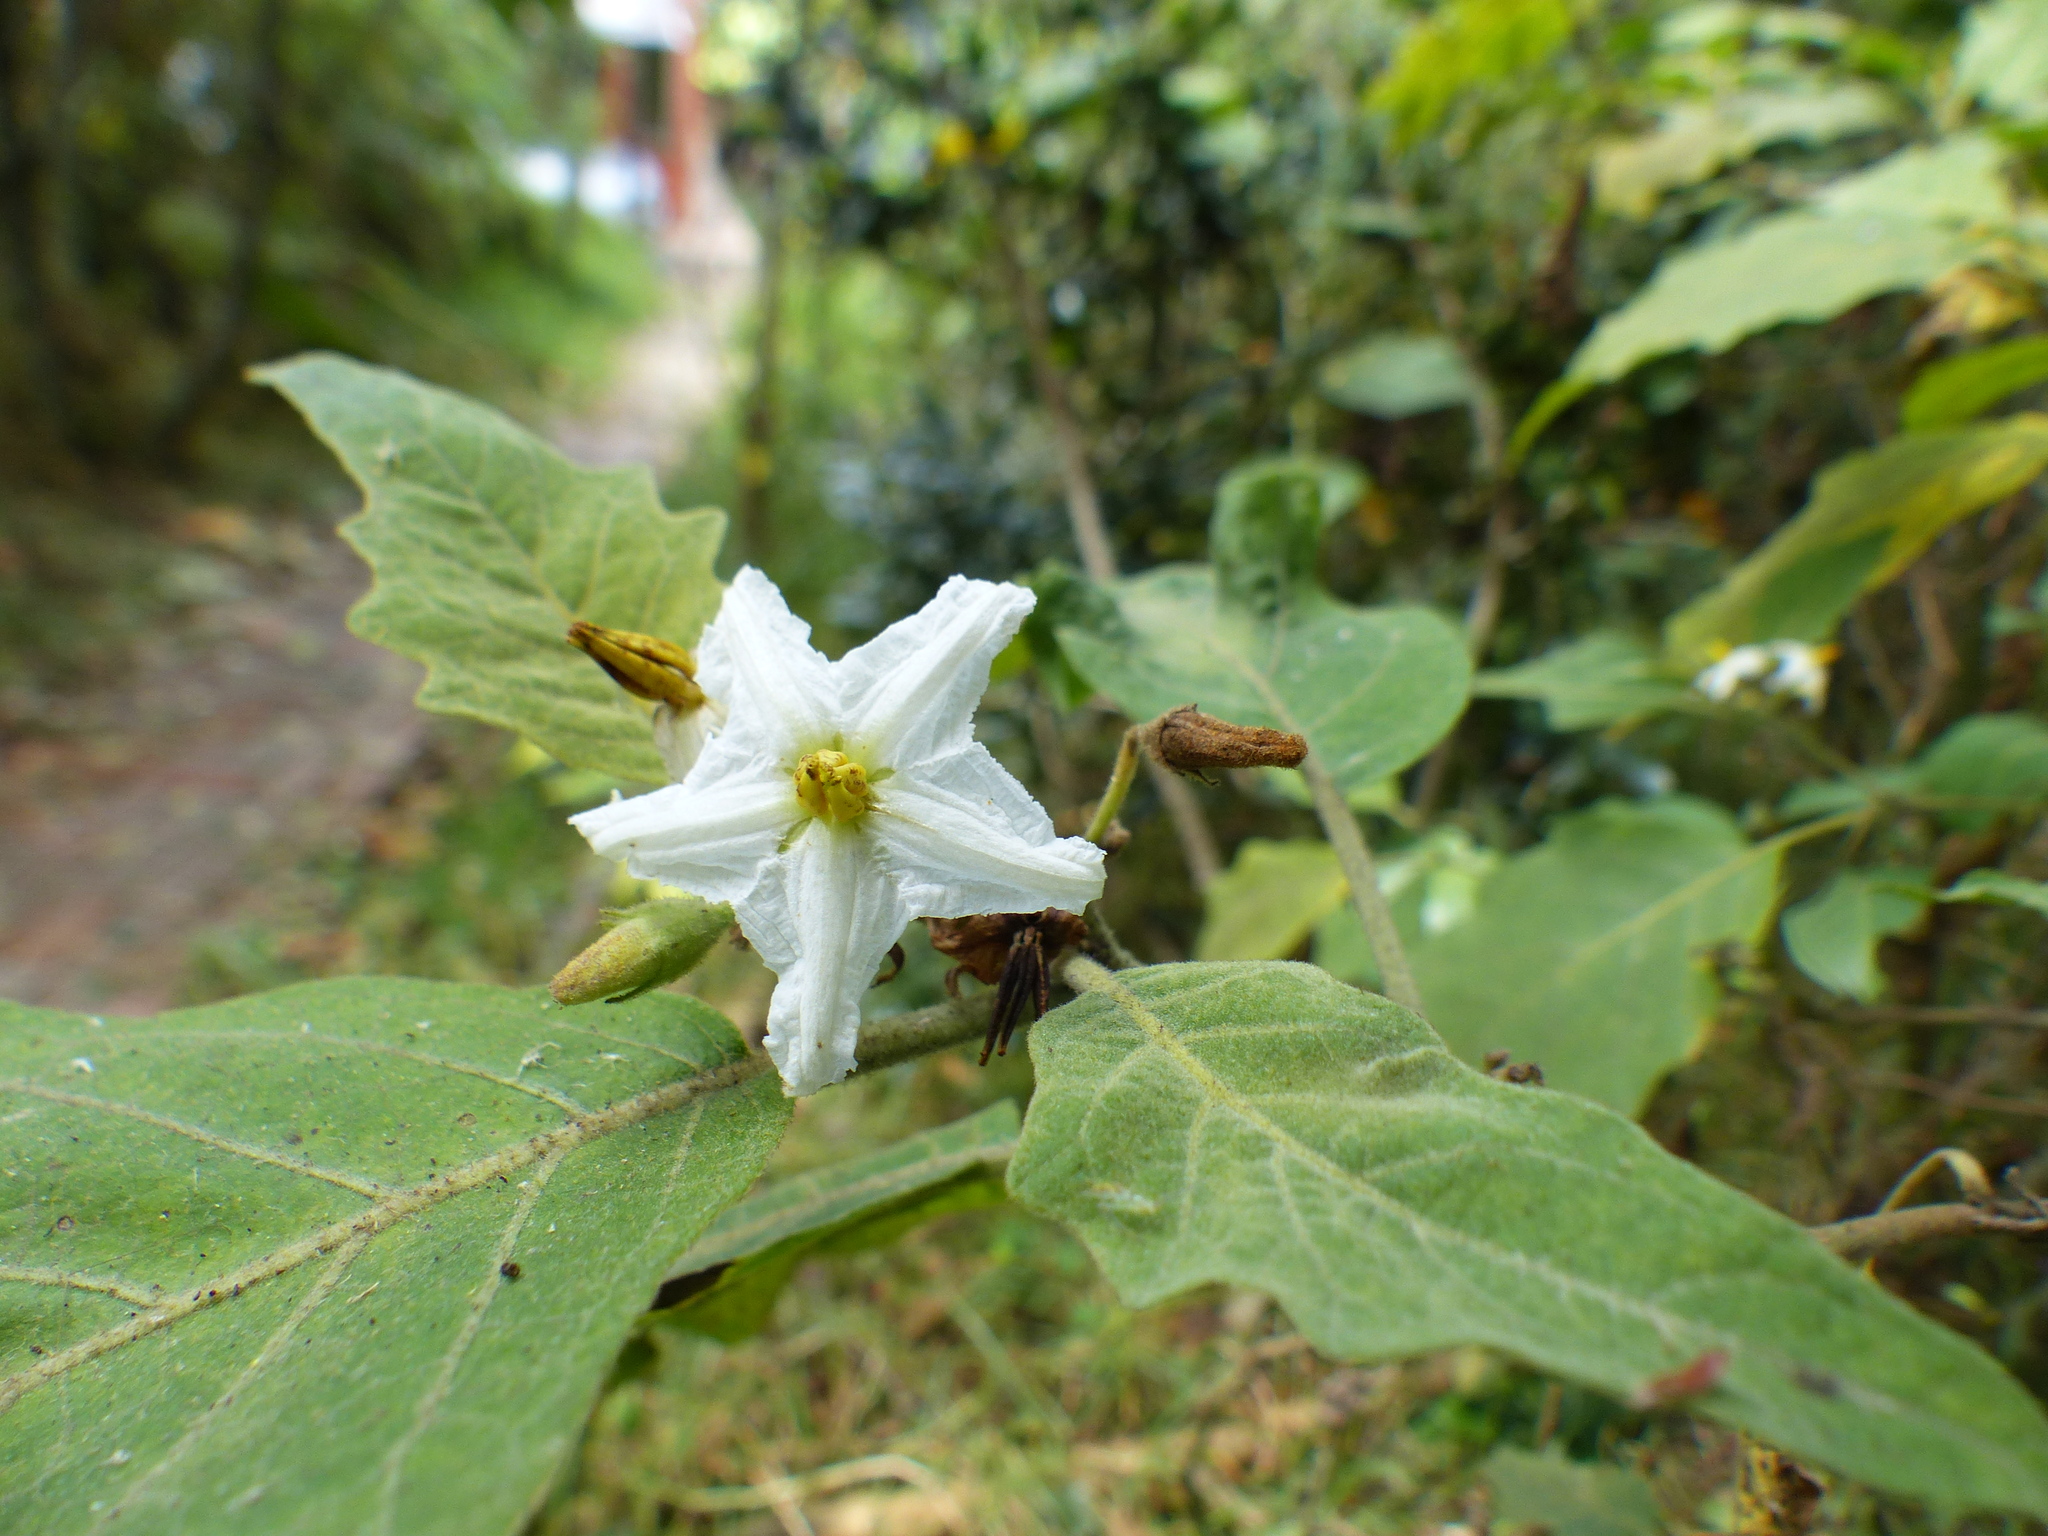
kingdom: Plantae
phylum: Tracheophyta
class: Magnoliopsida
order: Solanales
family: Solanaceae
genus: Solanum
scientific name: Solanum stellatiglandulosum
